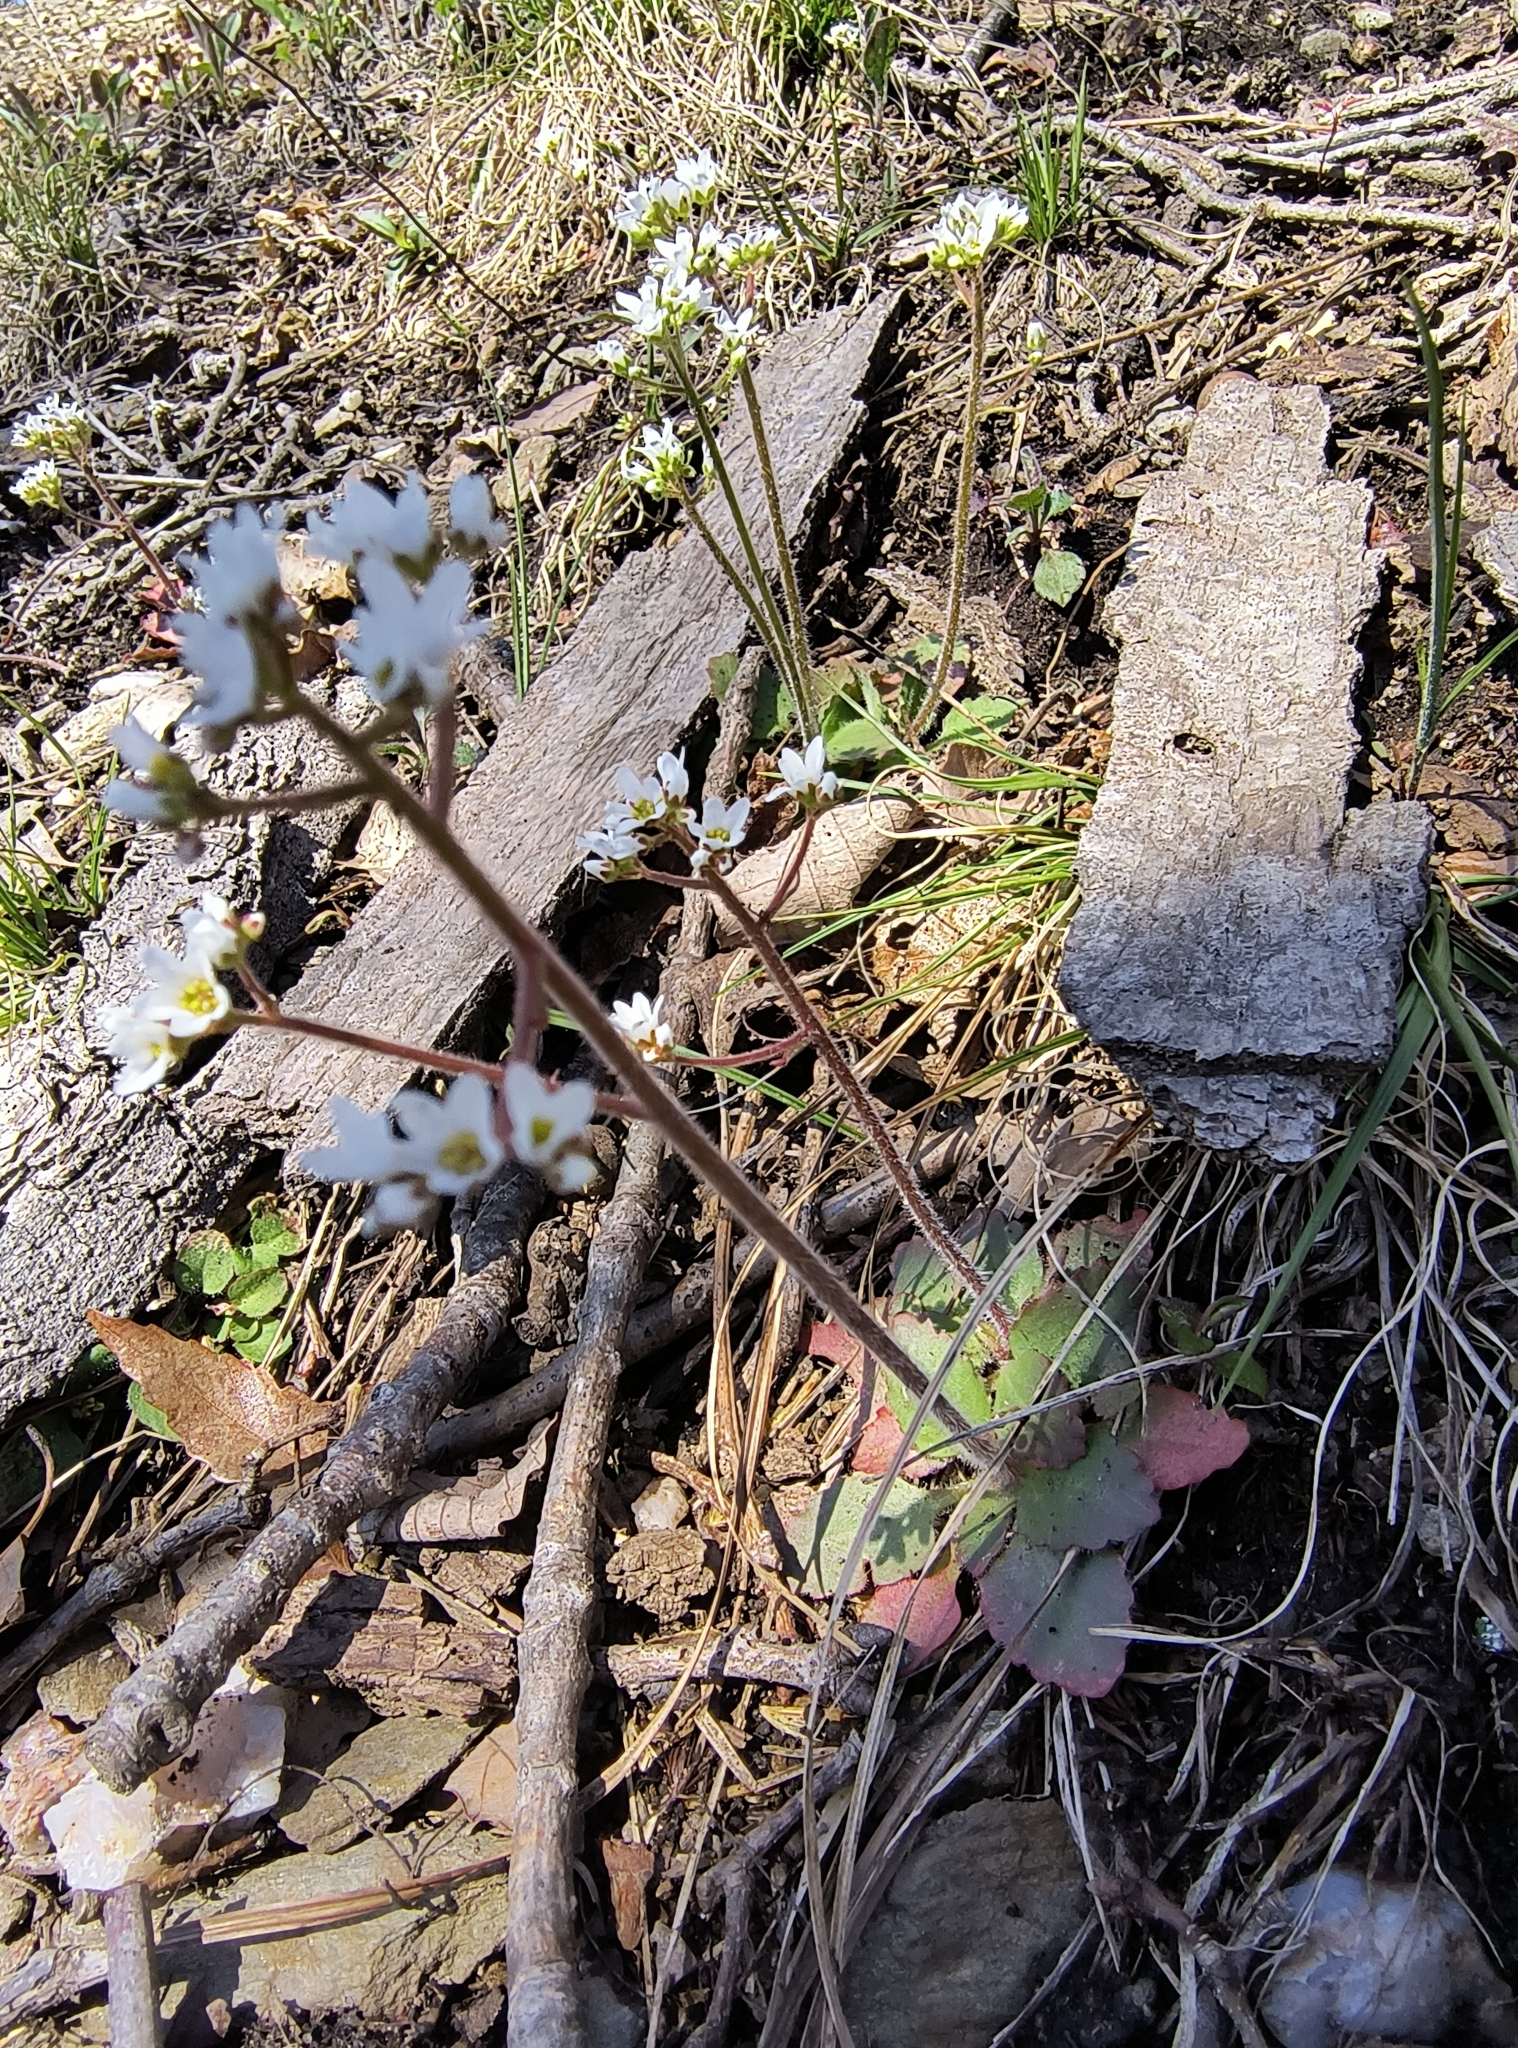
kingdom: Plantae
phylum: Tracheophyta
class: Magnoliopsida
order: Saxifragales
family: Saxifragaceae
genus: Micranthes
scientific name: Micranthes virginiensis
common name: Early saxifrage
